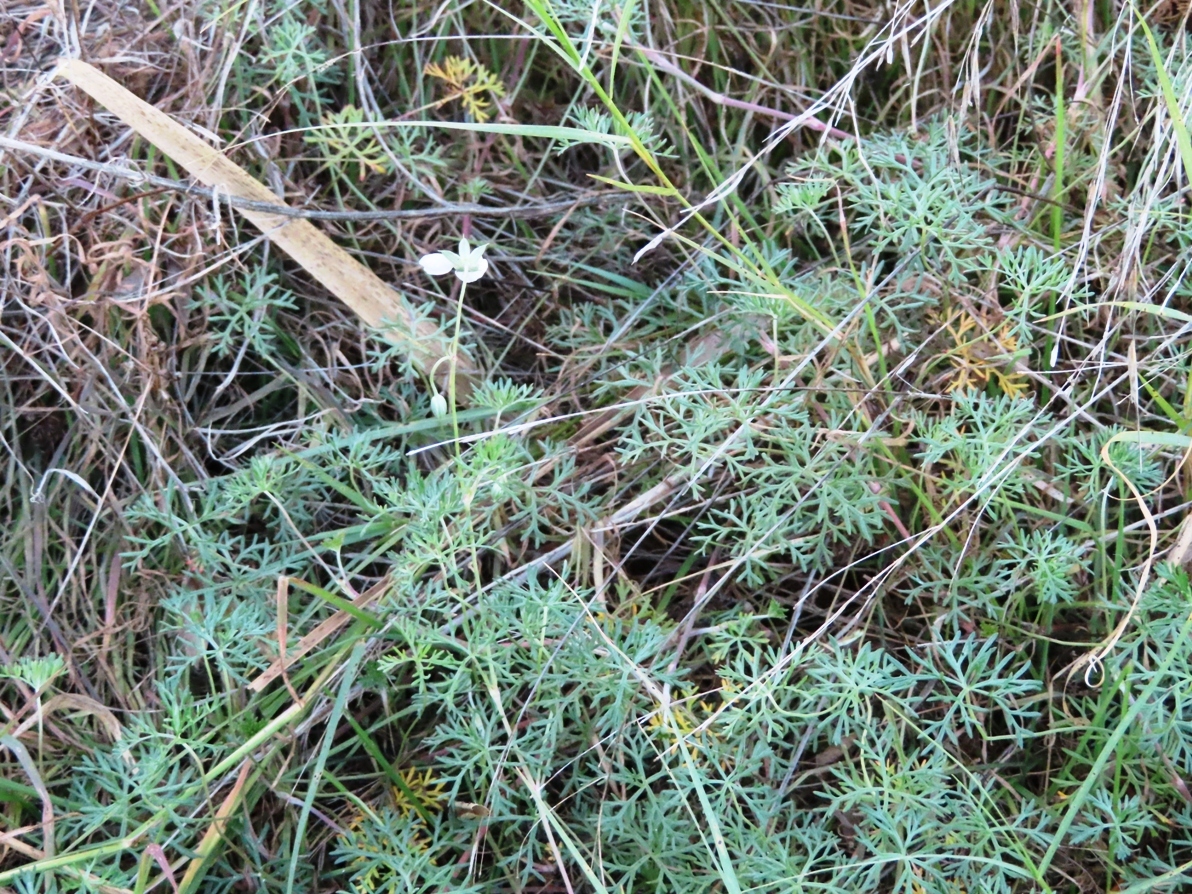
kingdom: Plantae
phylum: Tracheophyta
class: Magnoliopsida
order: Geraniales
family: Geraniaceae
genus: Geranium
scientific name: Geranium incanum
